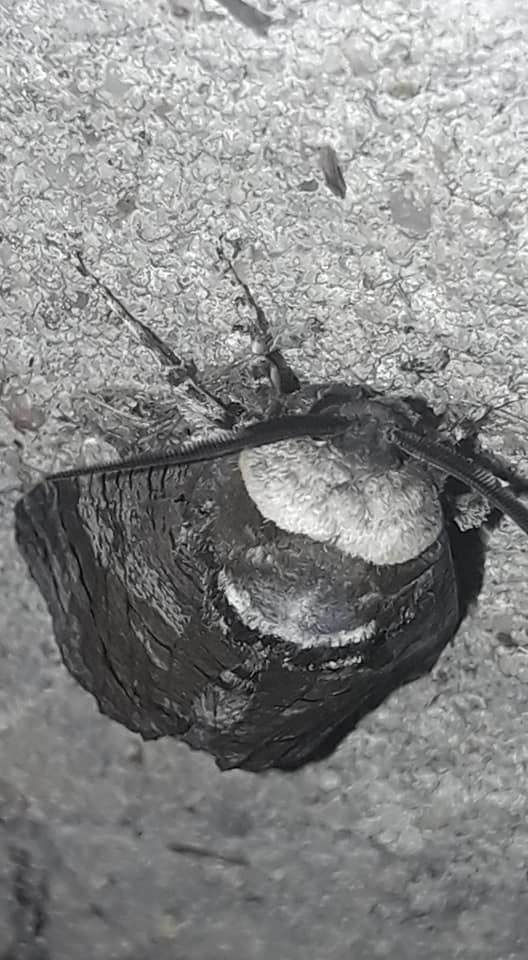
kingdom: Animalia
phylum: Arthropoda
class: Insecta
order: Lepidoptera
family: Cossidae
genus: Cossus
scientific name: Cossus cossus
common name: Goat moth
